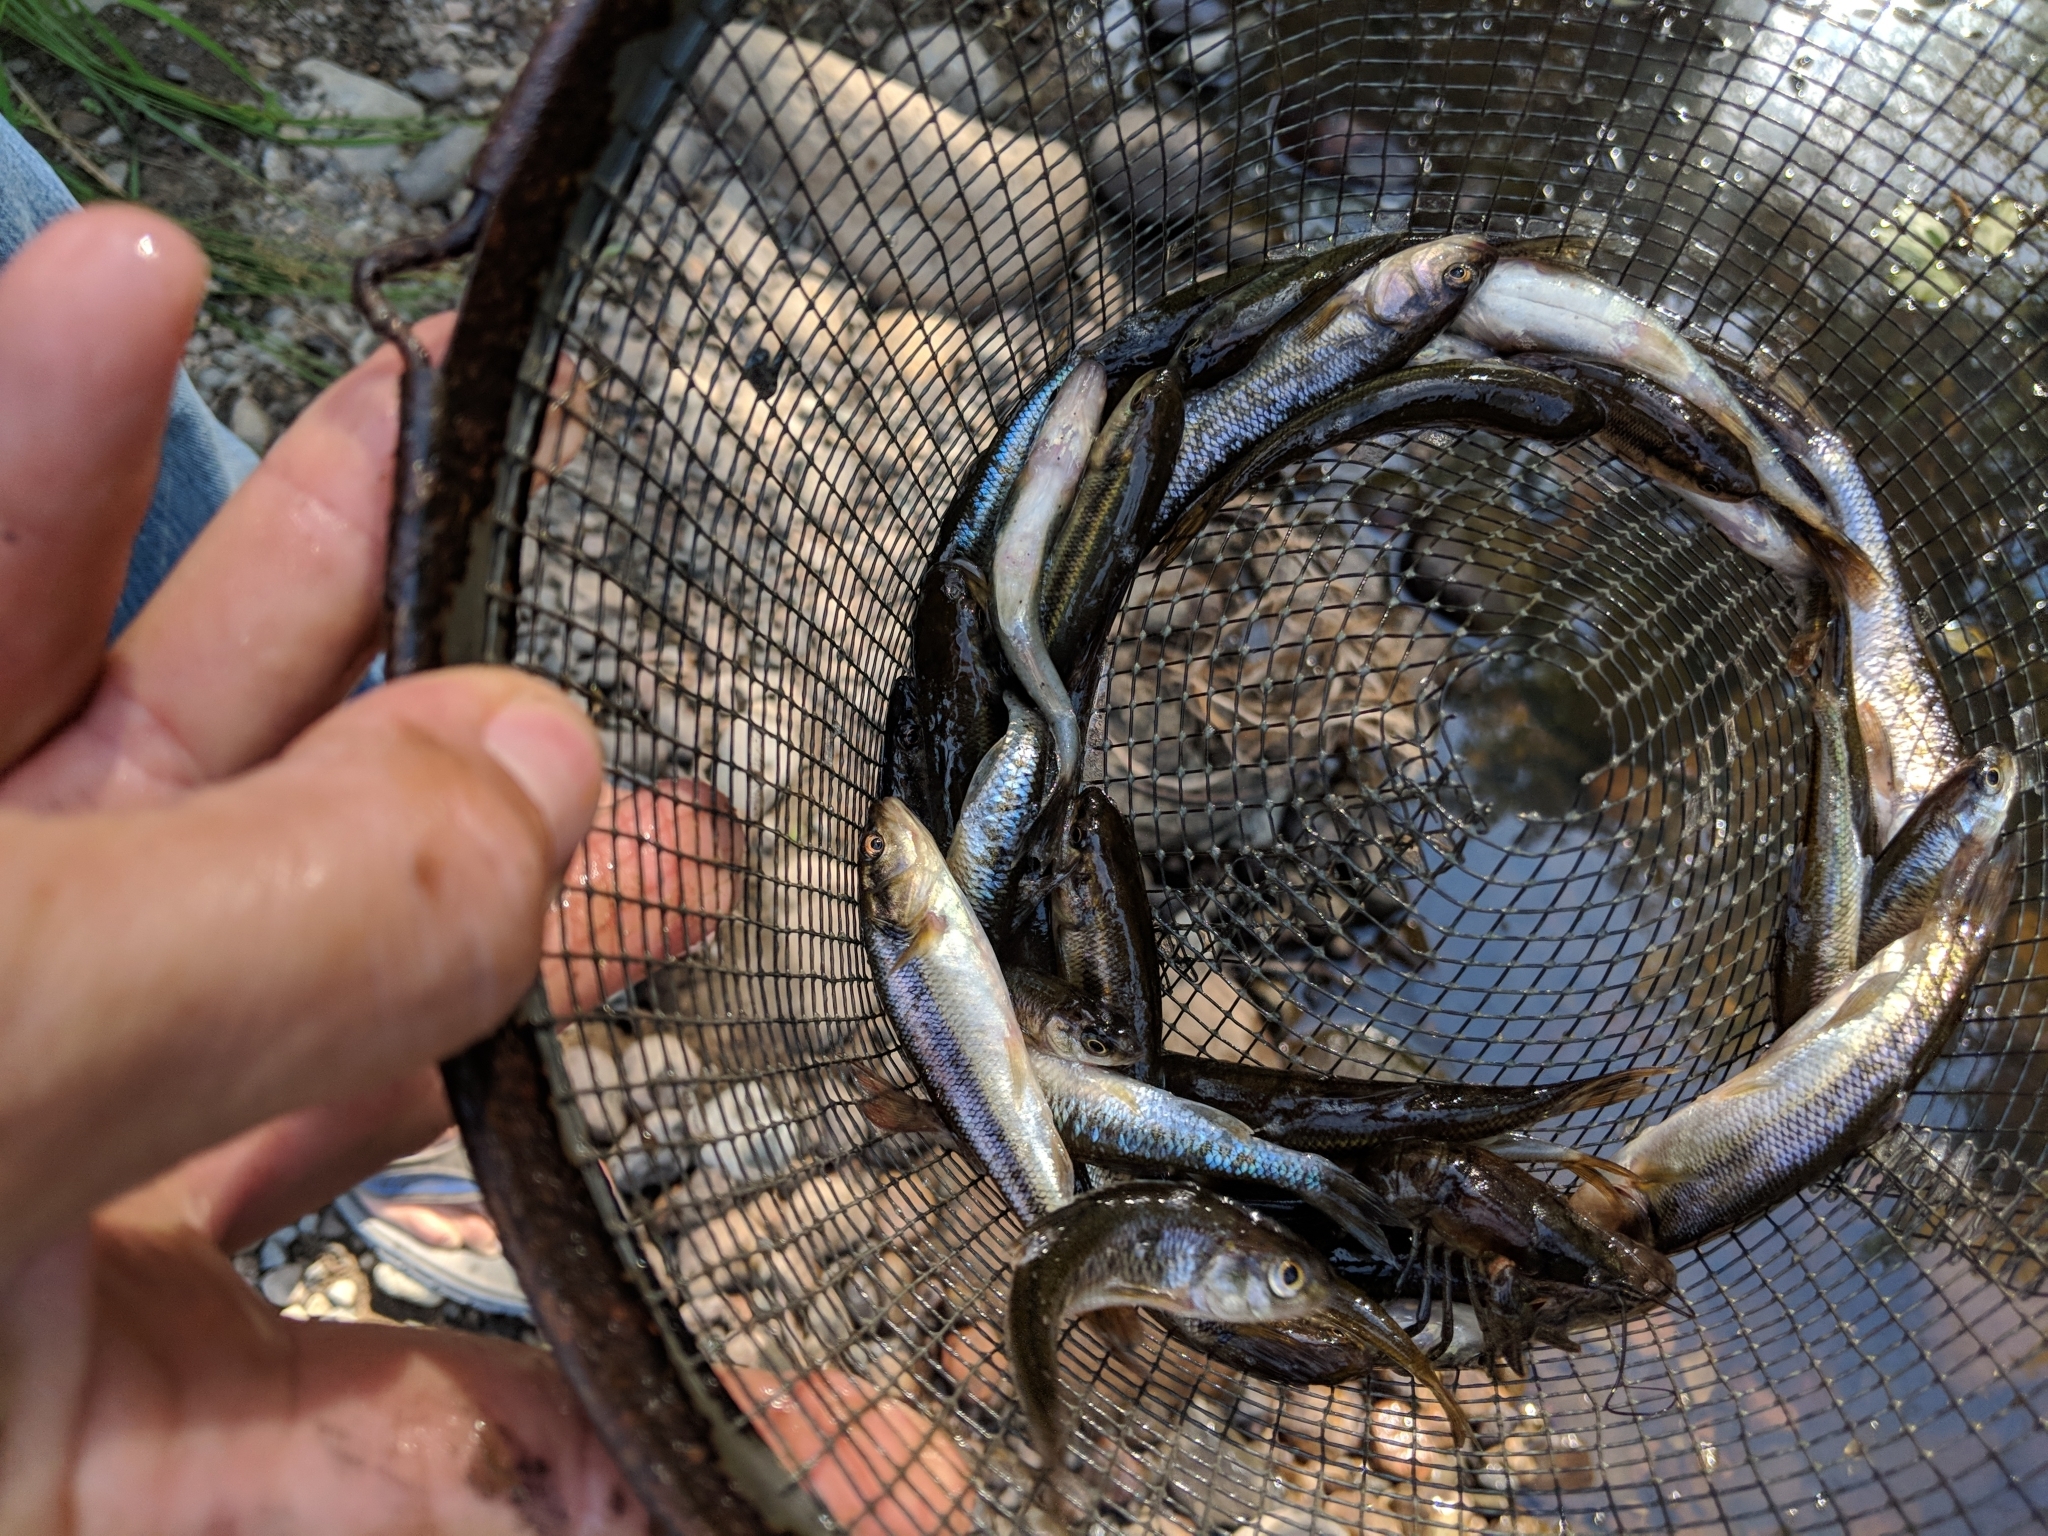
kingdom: Animalia
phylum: Chordata
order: Cypriniformes
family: Cyprinidae
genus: Semotilus
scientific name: Semotilus atromaculatus
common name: Creek chub
